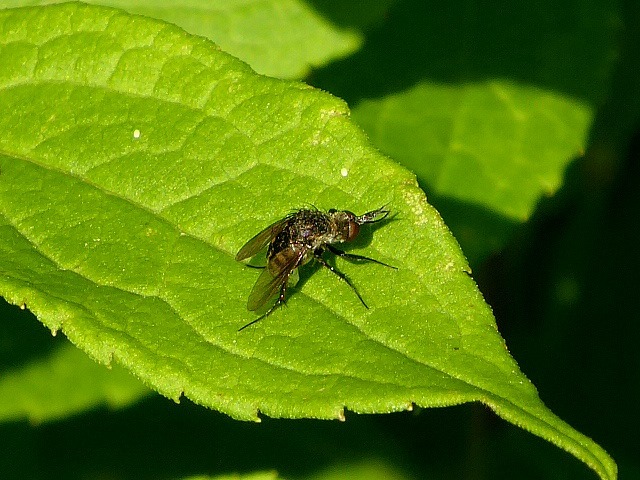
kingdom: Animalia
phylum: Arthropoda
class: Insecta
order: Diptera
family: Bombyliidae
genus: Toxophora
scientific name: Toxophora amphitea
